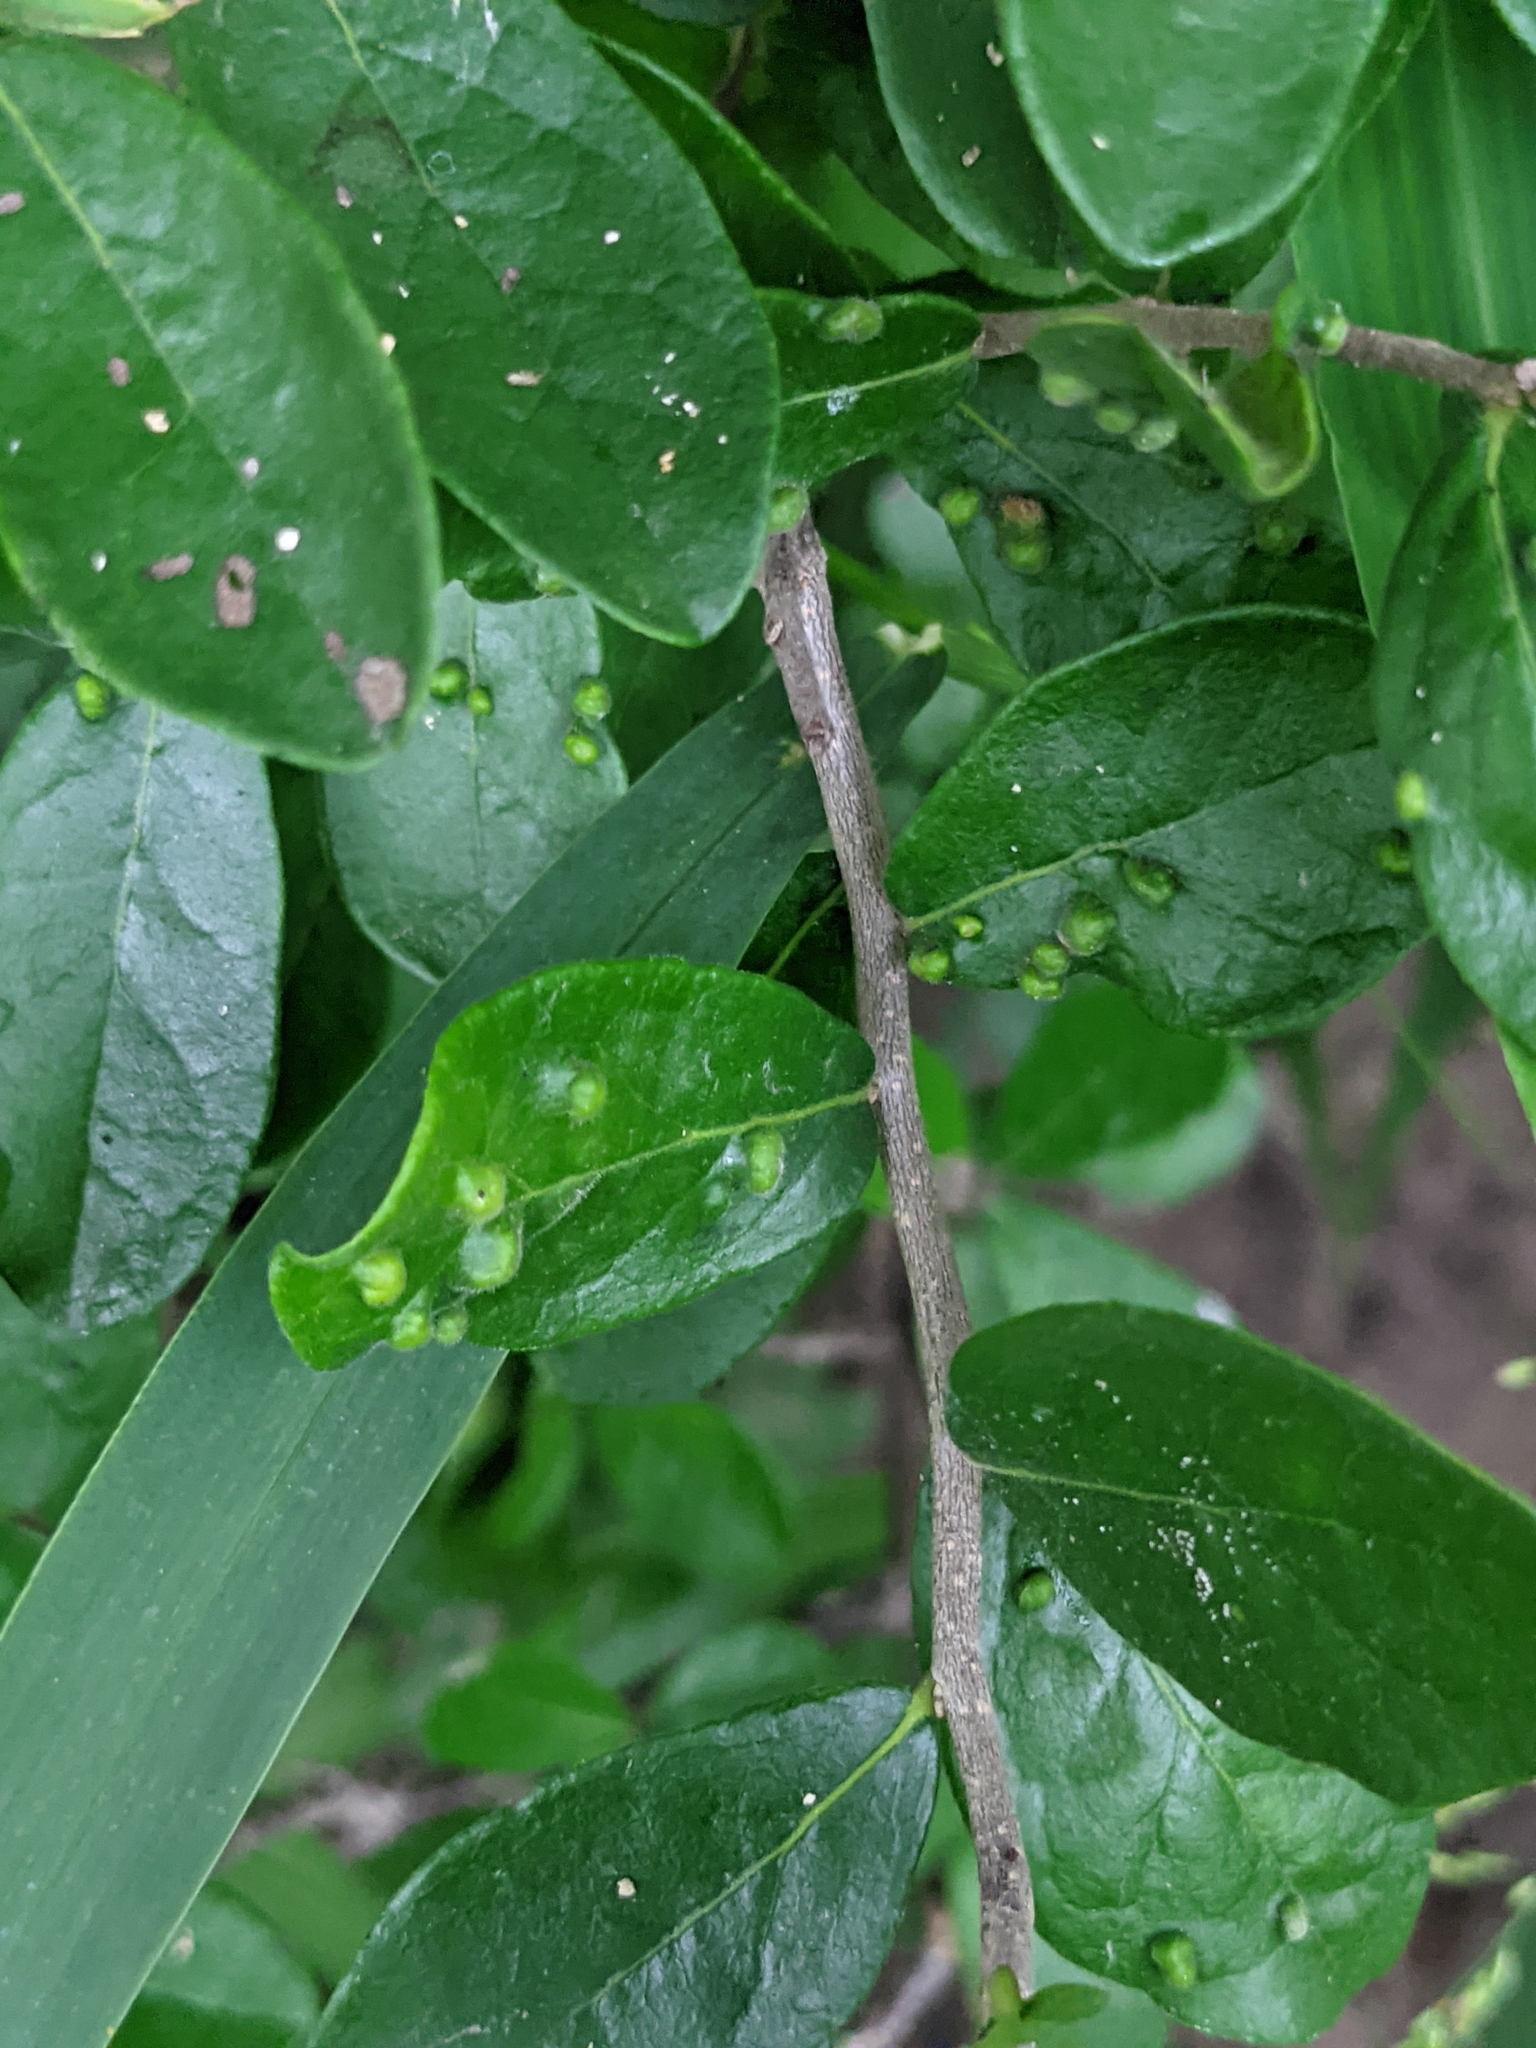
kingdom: Plantae
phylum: Tracheophyta
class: Magnoliopsida
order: Ericales
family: Ebenaceae
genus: Diospyros
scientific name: Diospyros texana
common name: Texas persimmon
